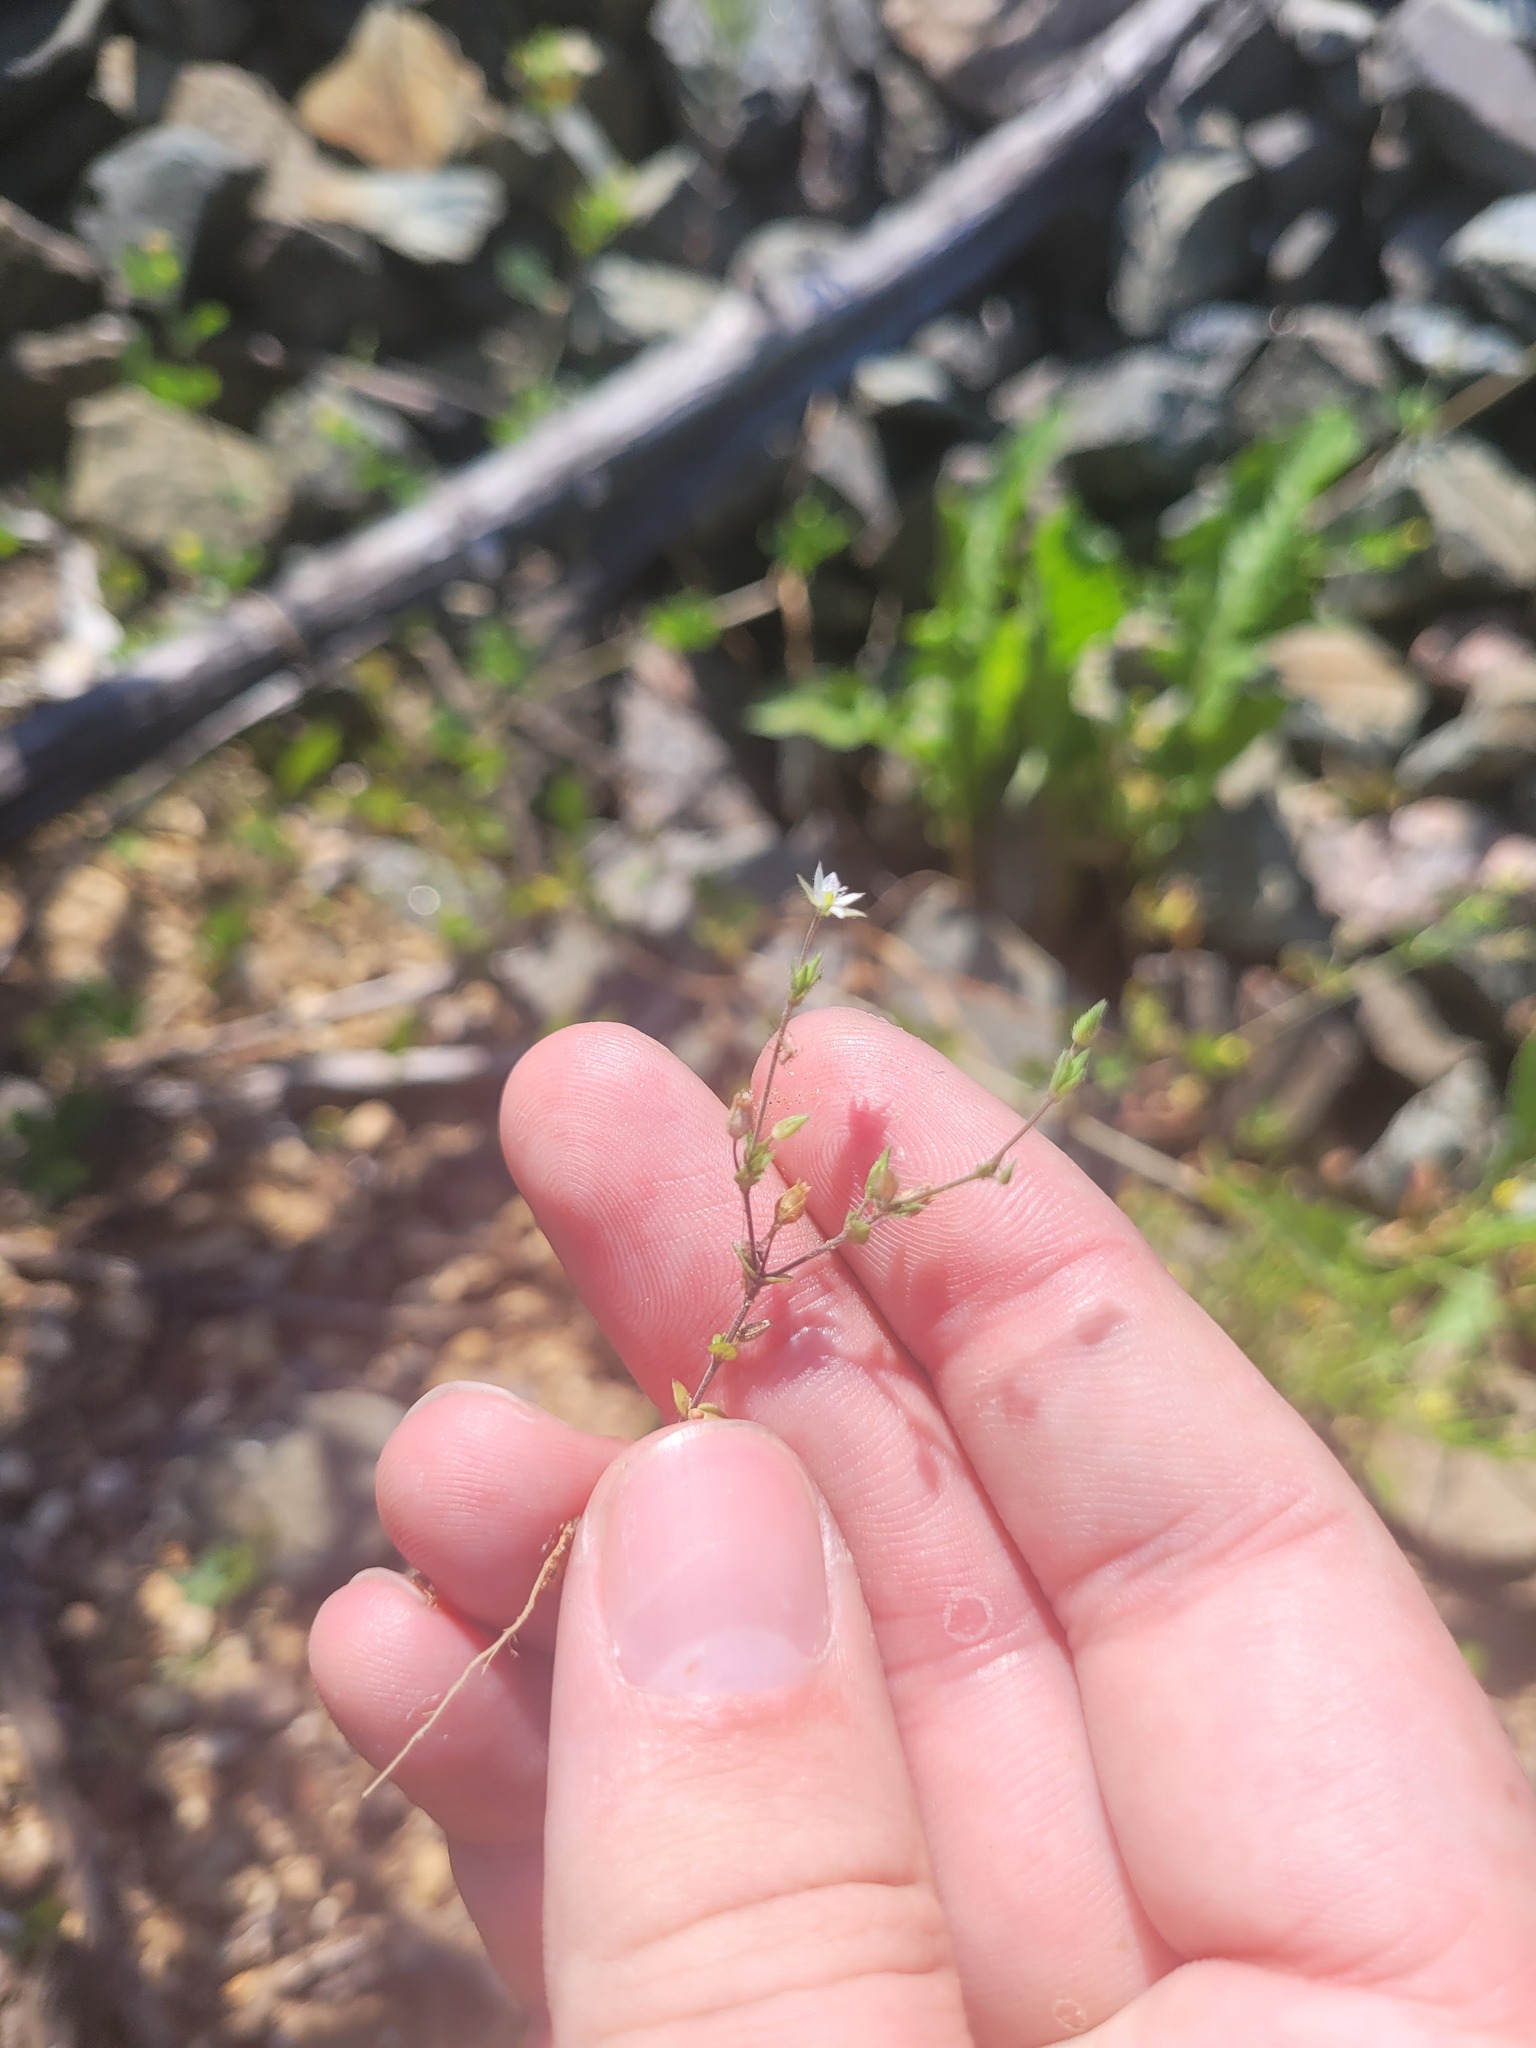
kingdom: Plantae
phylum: Tracheophyta
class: Magnoliopsida
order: Caryophyllales
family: Caryophyllaceae
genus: Arenaria
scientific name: Arenaria serpyllifolia
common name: Thyme-leaved sandwort
